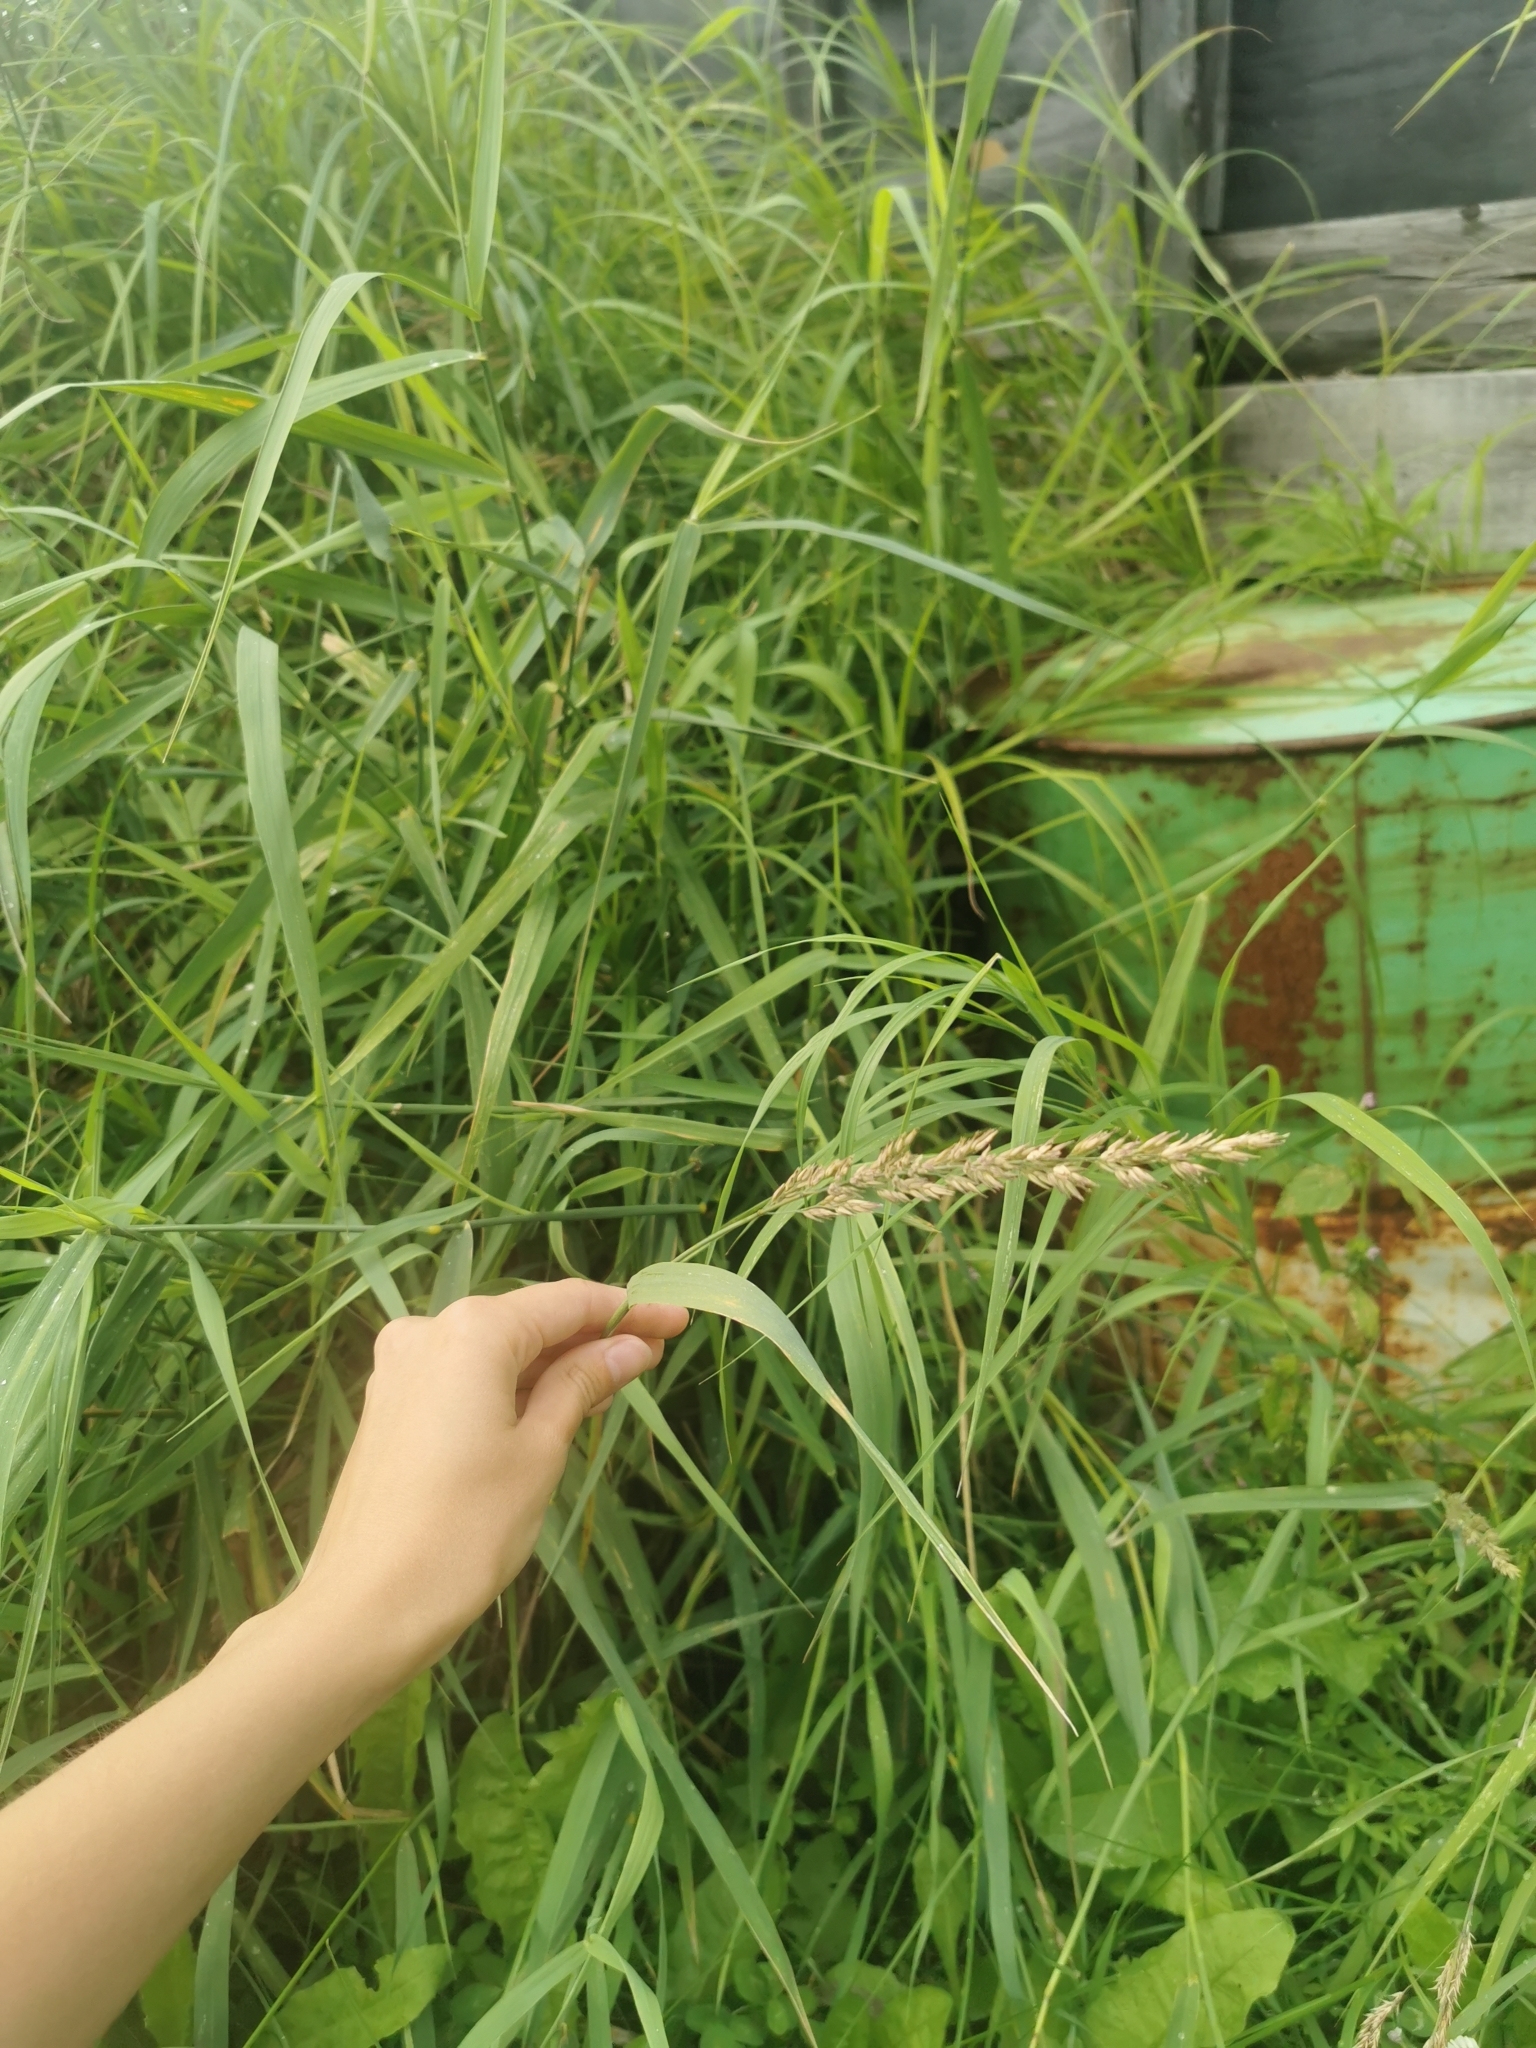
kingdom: Plantae
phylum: Tracheophyta
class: Liliopsida
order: Poales
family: Poaceae
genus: Phalaris
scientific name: Phalaris arundinacea
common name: Reed canary-grass
